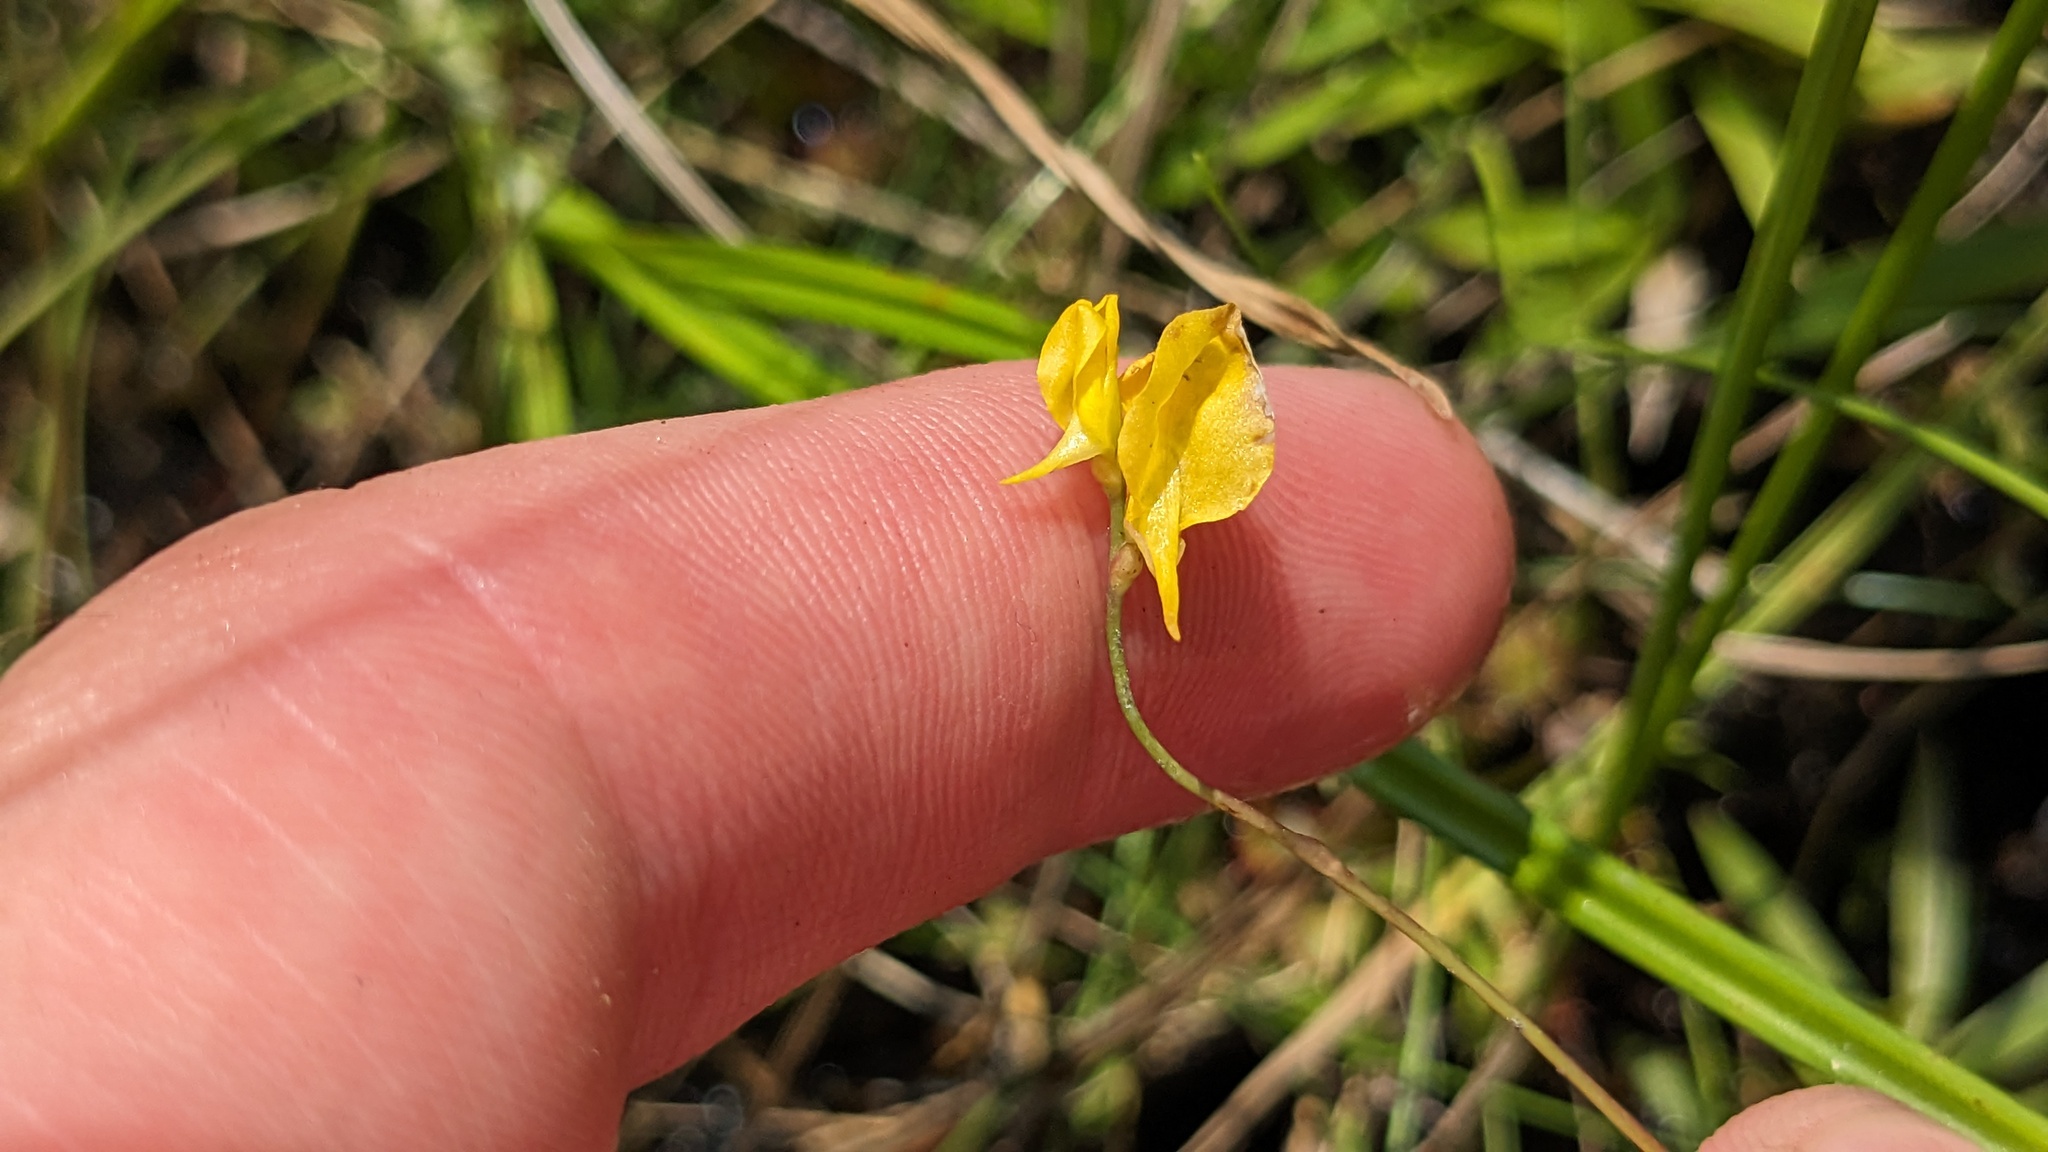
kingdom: Plantae
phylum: Tracheophyta
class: Magnoliopsida
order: Lamiales
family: Lentibulariaceae
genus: Utricularia
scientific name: Utricularia juncea
